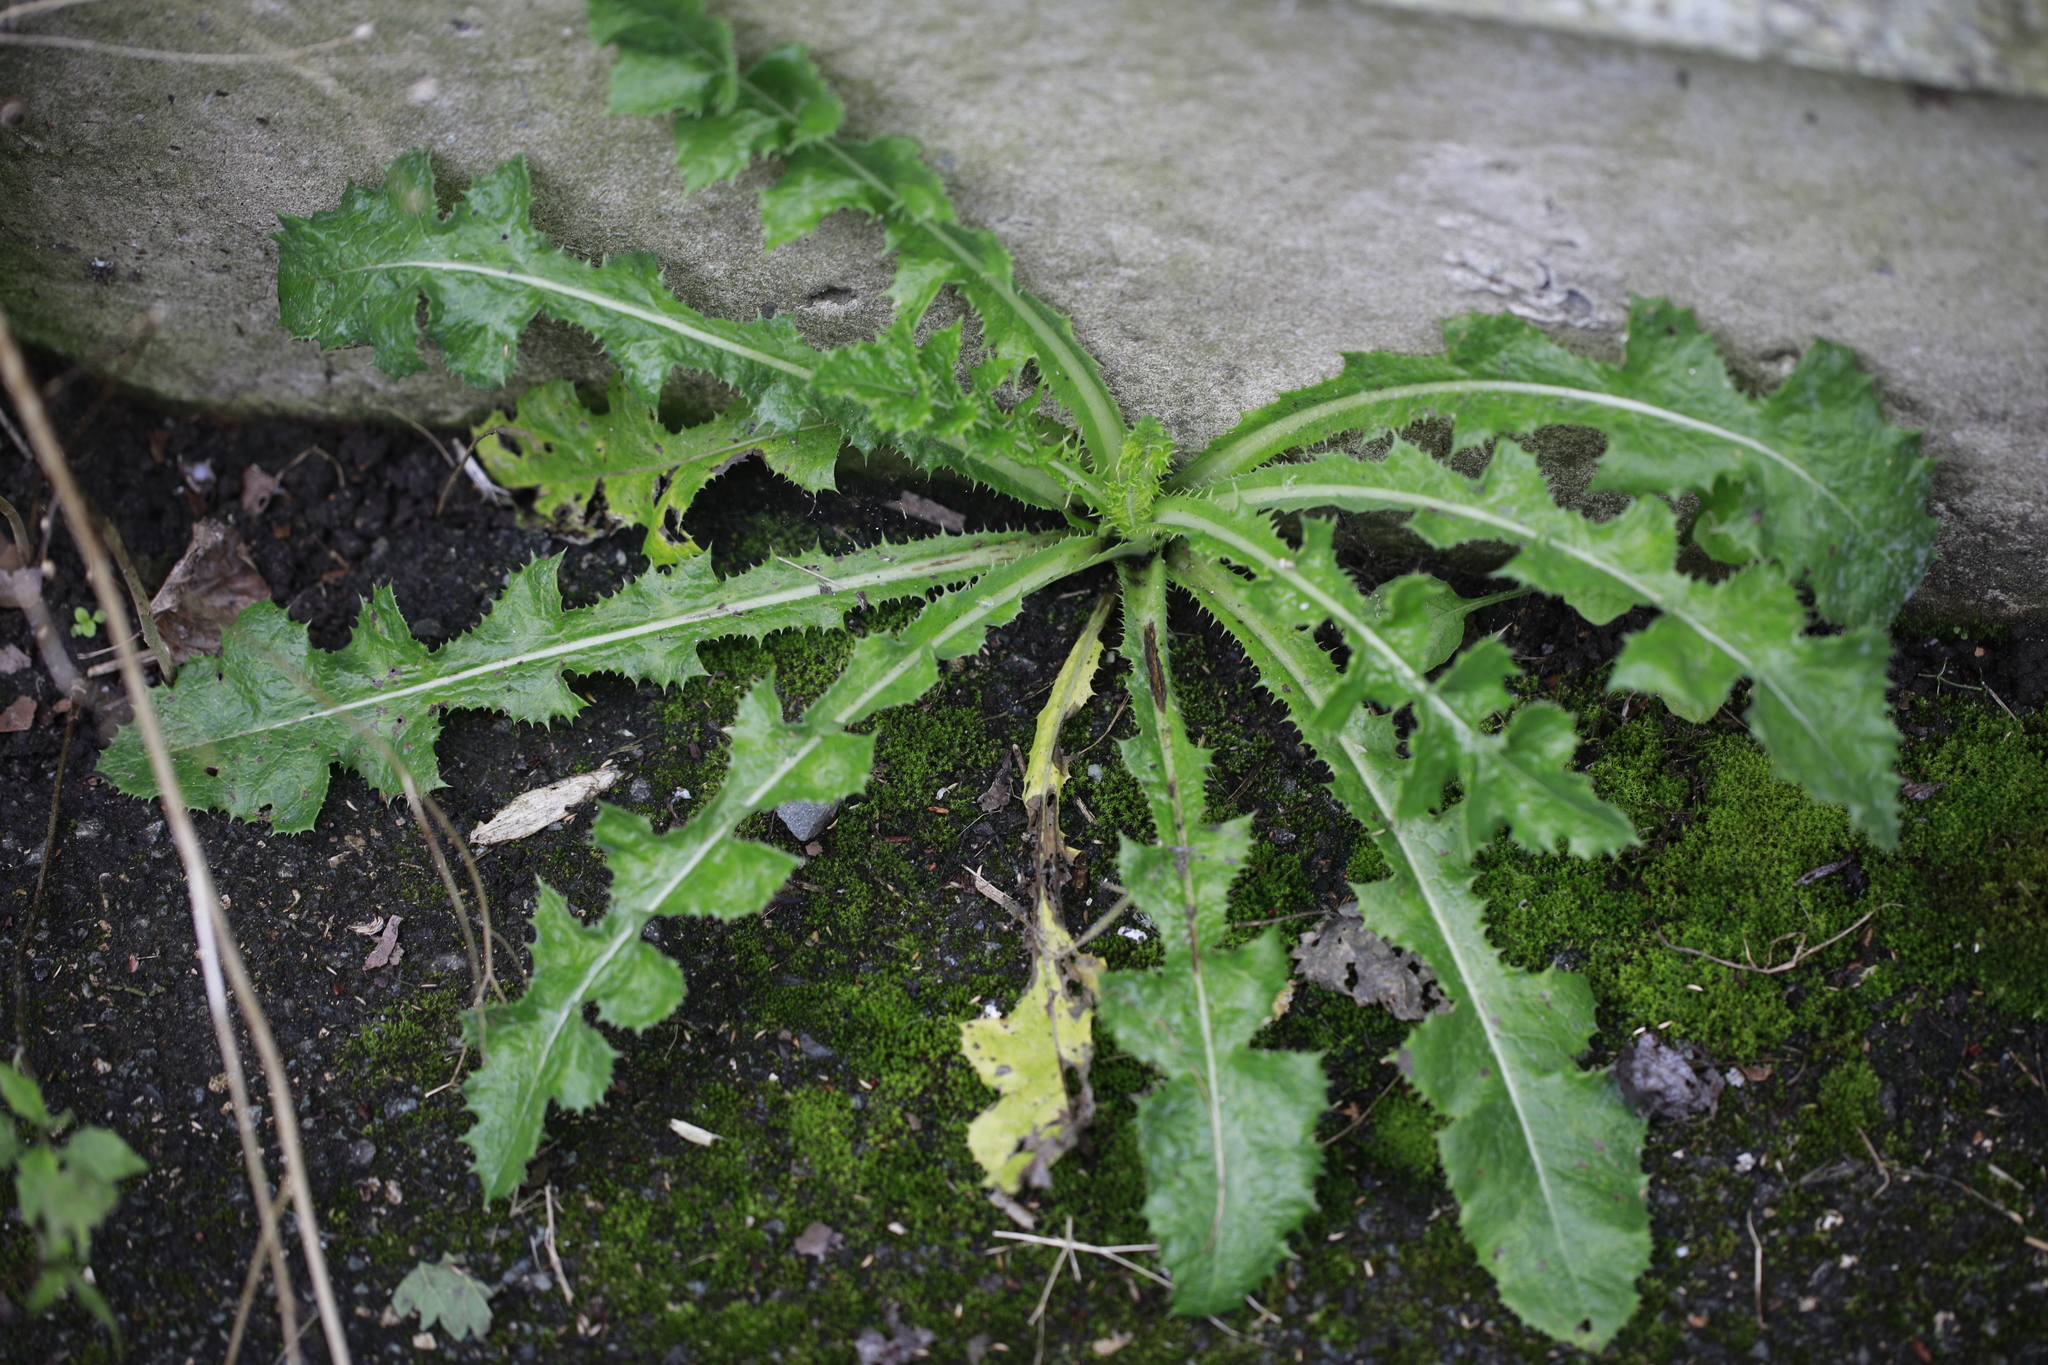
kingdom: Plantae
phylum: Tracheophyta
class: Magnoliopsida
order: Asterales
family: Asteraceae
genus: Taraxacum
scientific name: Taraxacum officinale
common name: Common dandelion
